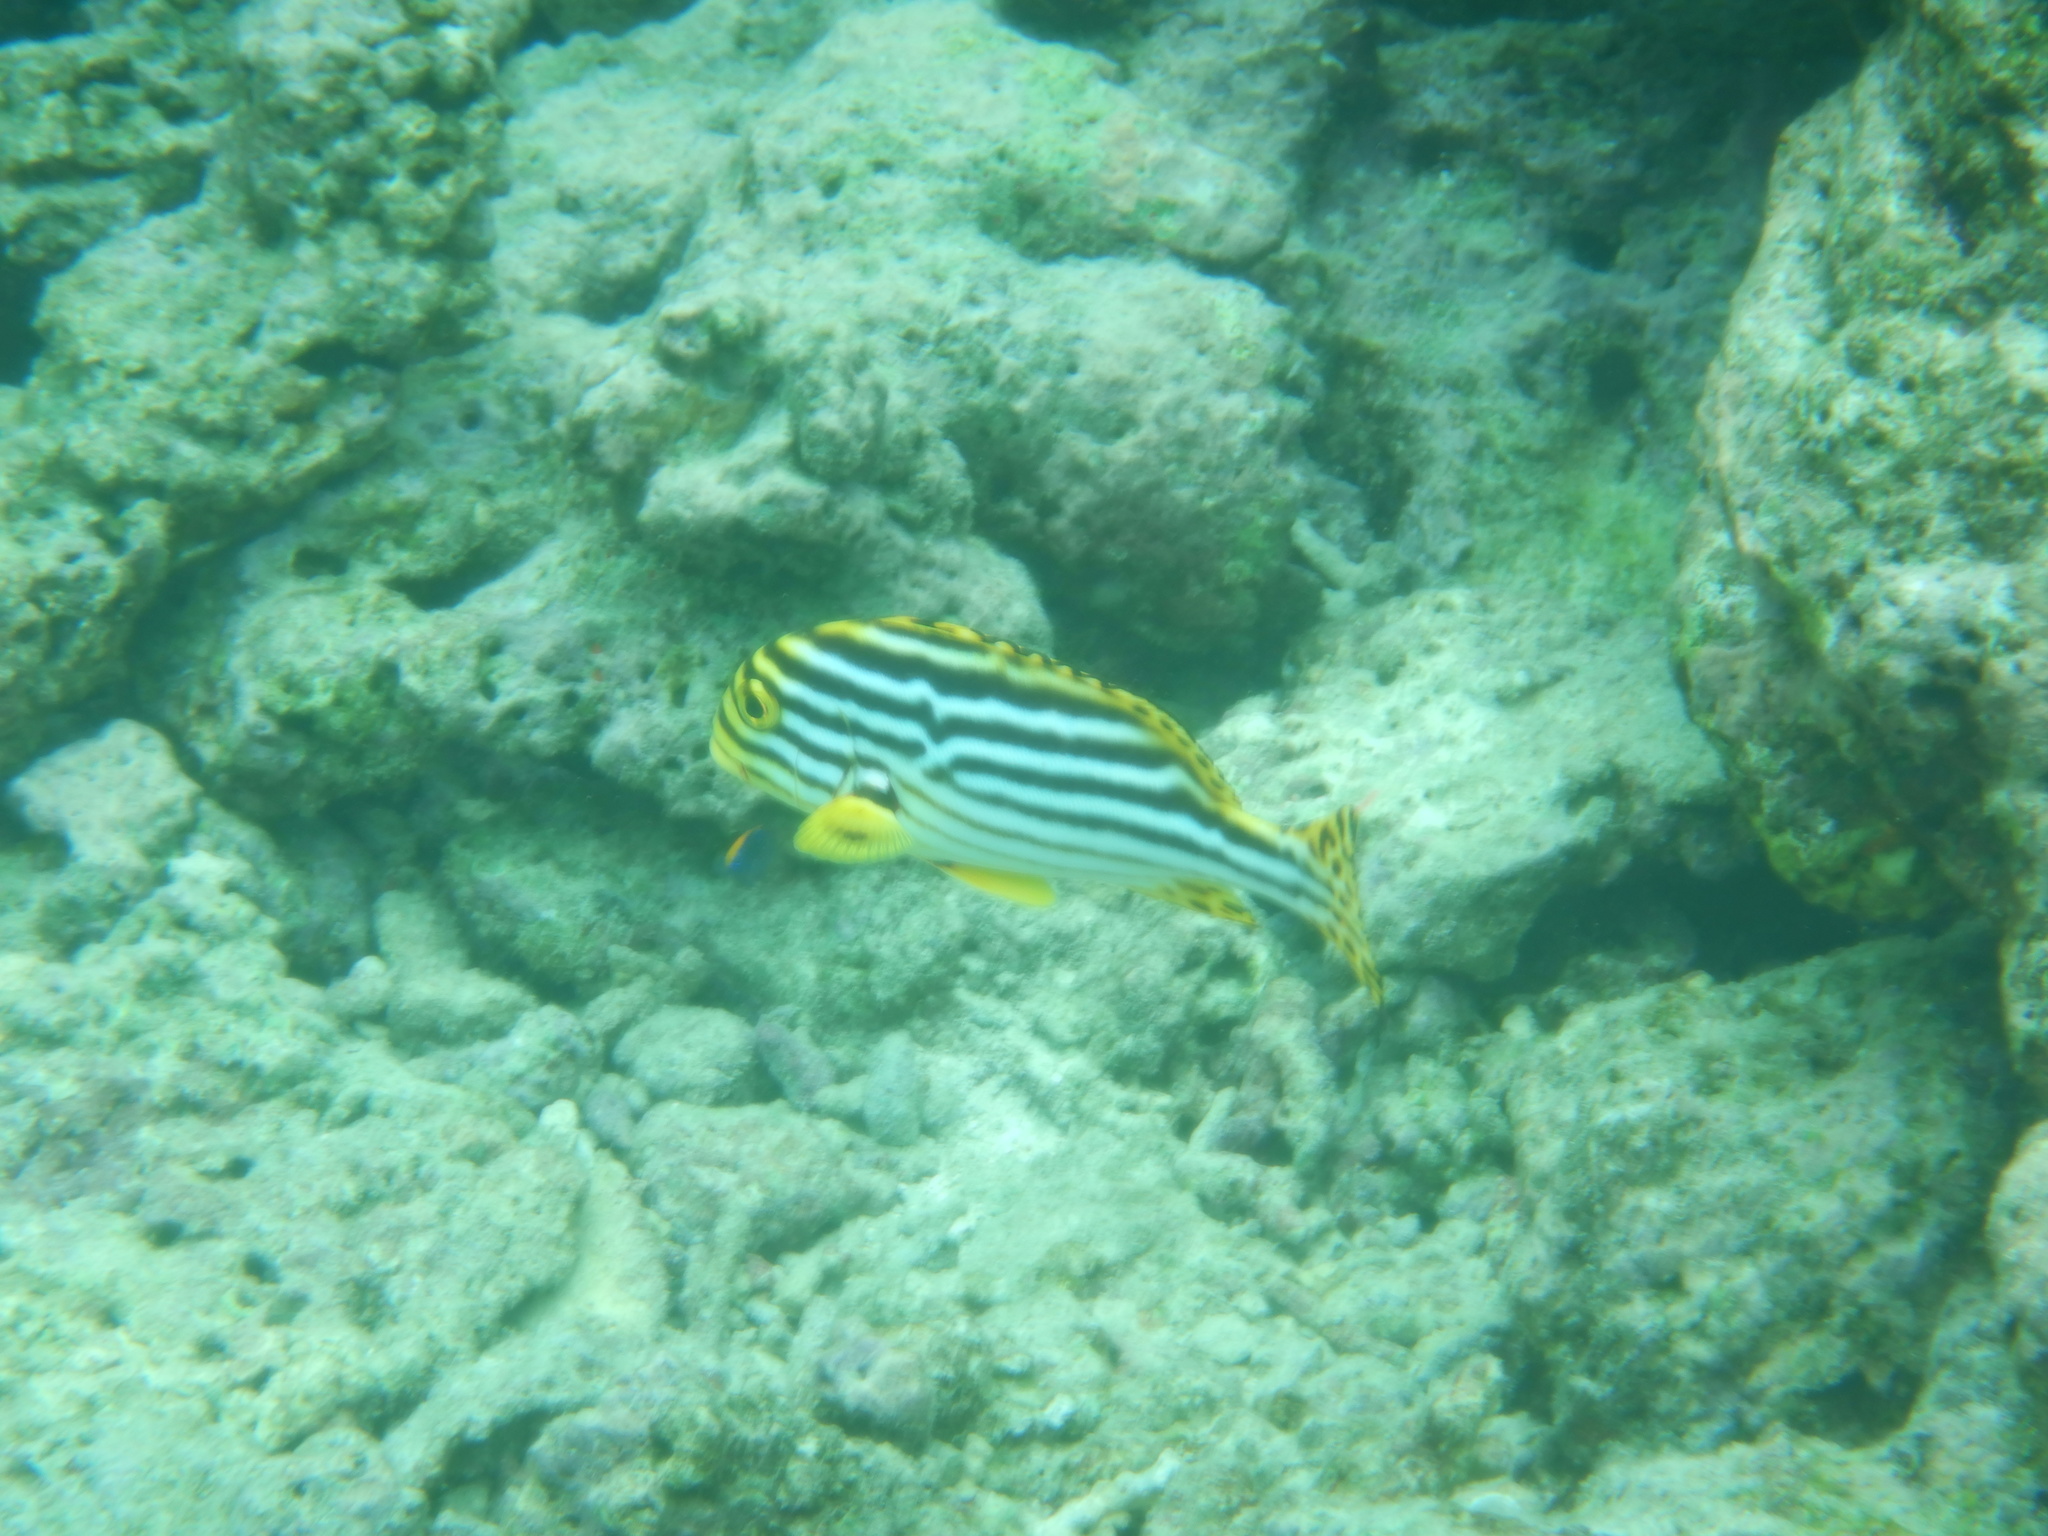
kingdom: Animalia
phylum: Chordata
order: Perciformes
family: Haemulidae
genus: Plectorhinchus
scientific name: Plectorhinchus vittatus
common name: Oriental sweetlips
